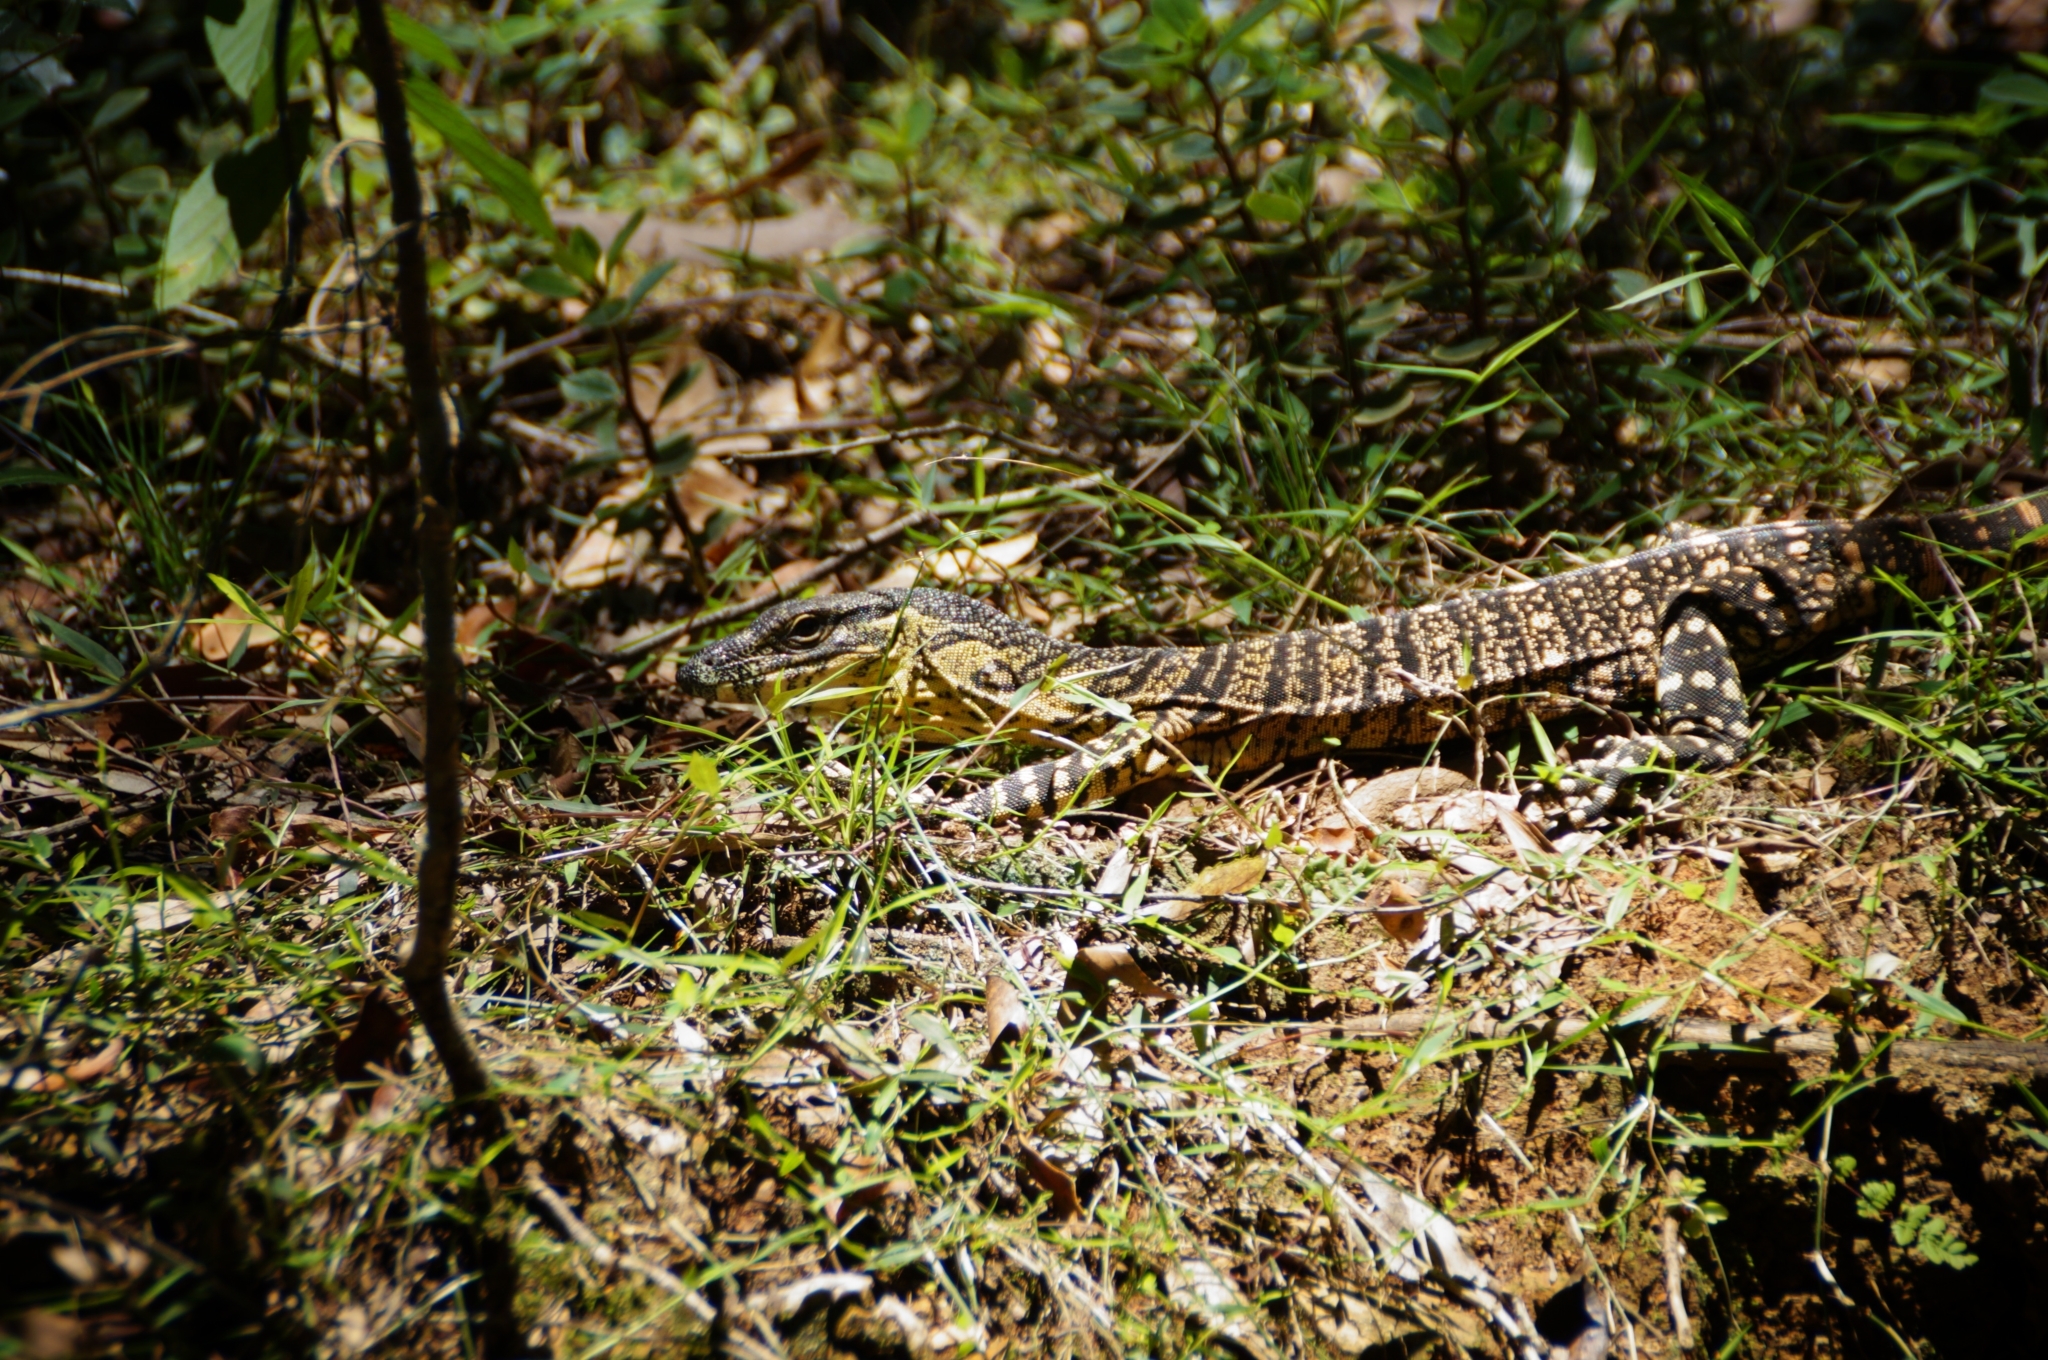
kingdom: Animalia
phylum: Chordata
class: Squamata
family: Varanidae
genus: Varanus
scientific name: Varanus varius
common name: Lace monitor
